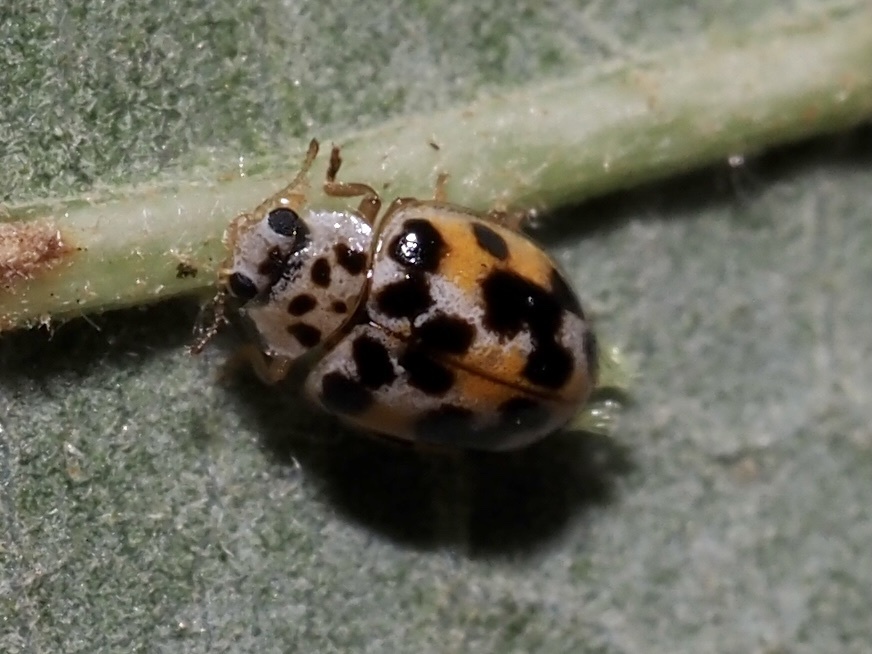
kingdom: Animalia
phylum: Arthropoda
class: Insecta
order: Coleoptera
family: Coccinellidae
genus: Psyllobora
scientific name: Psyllobora vigintimaculata
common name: Ladybird beetle
